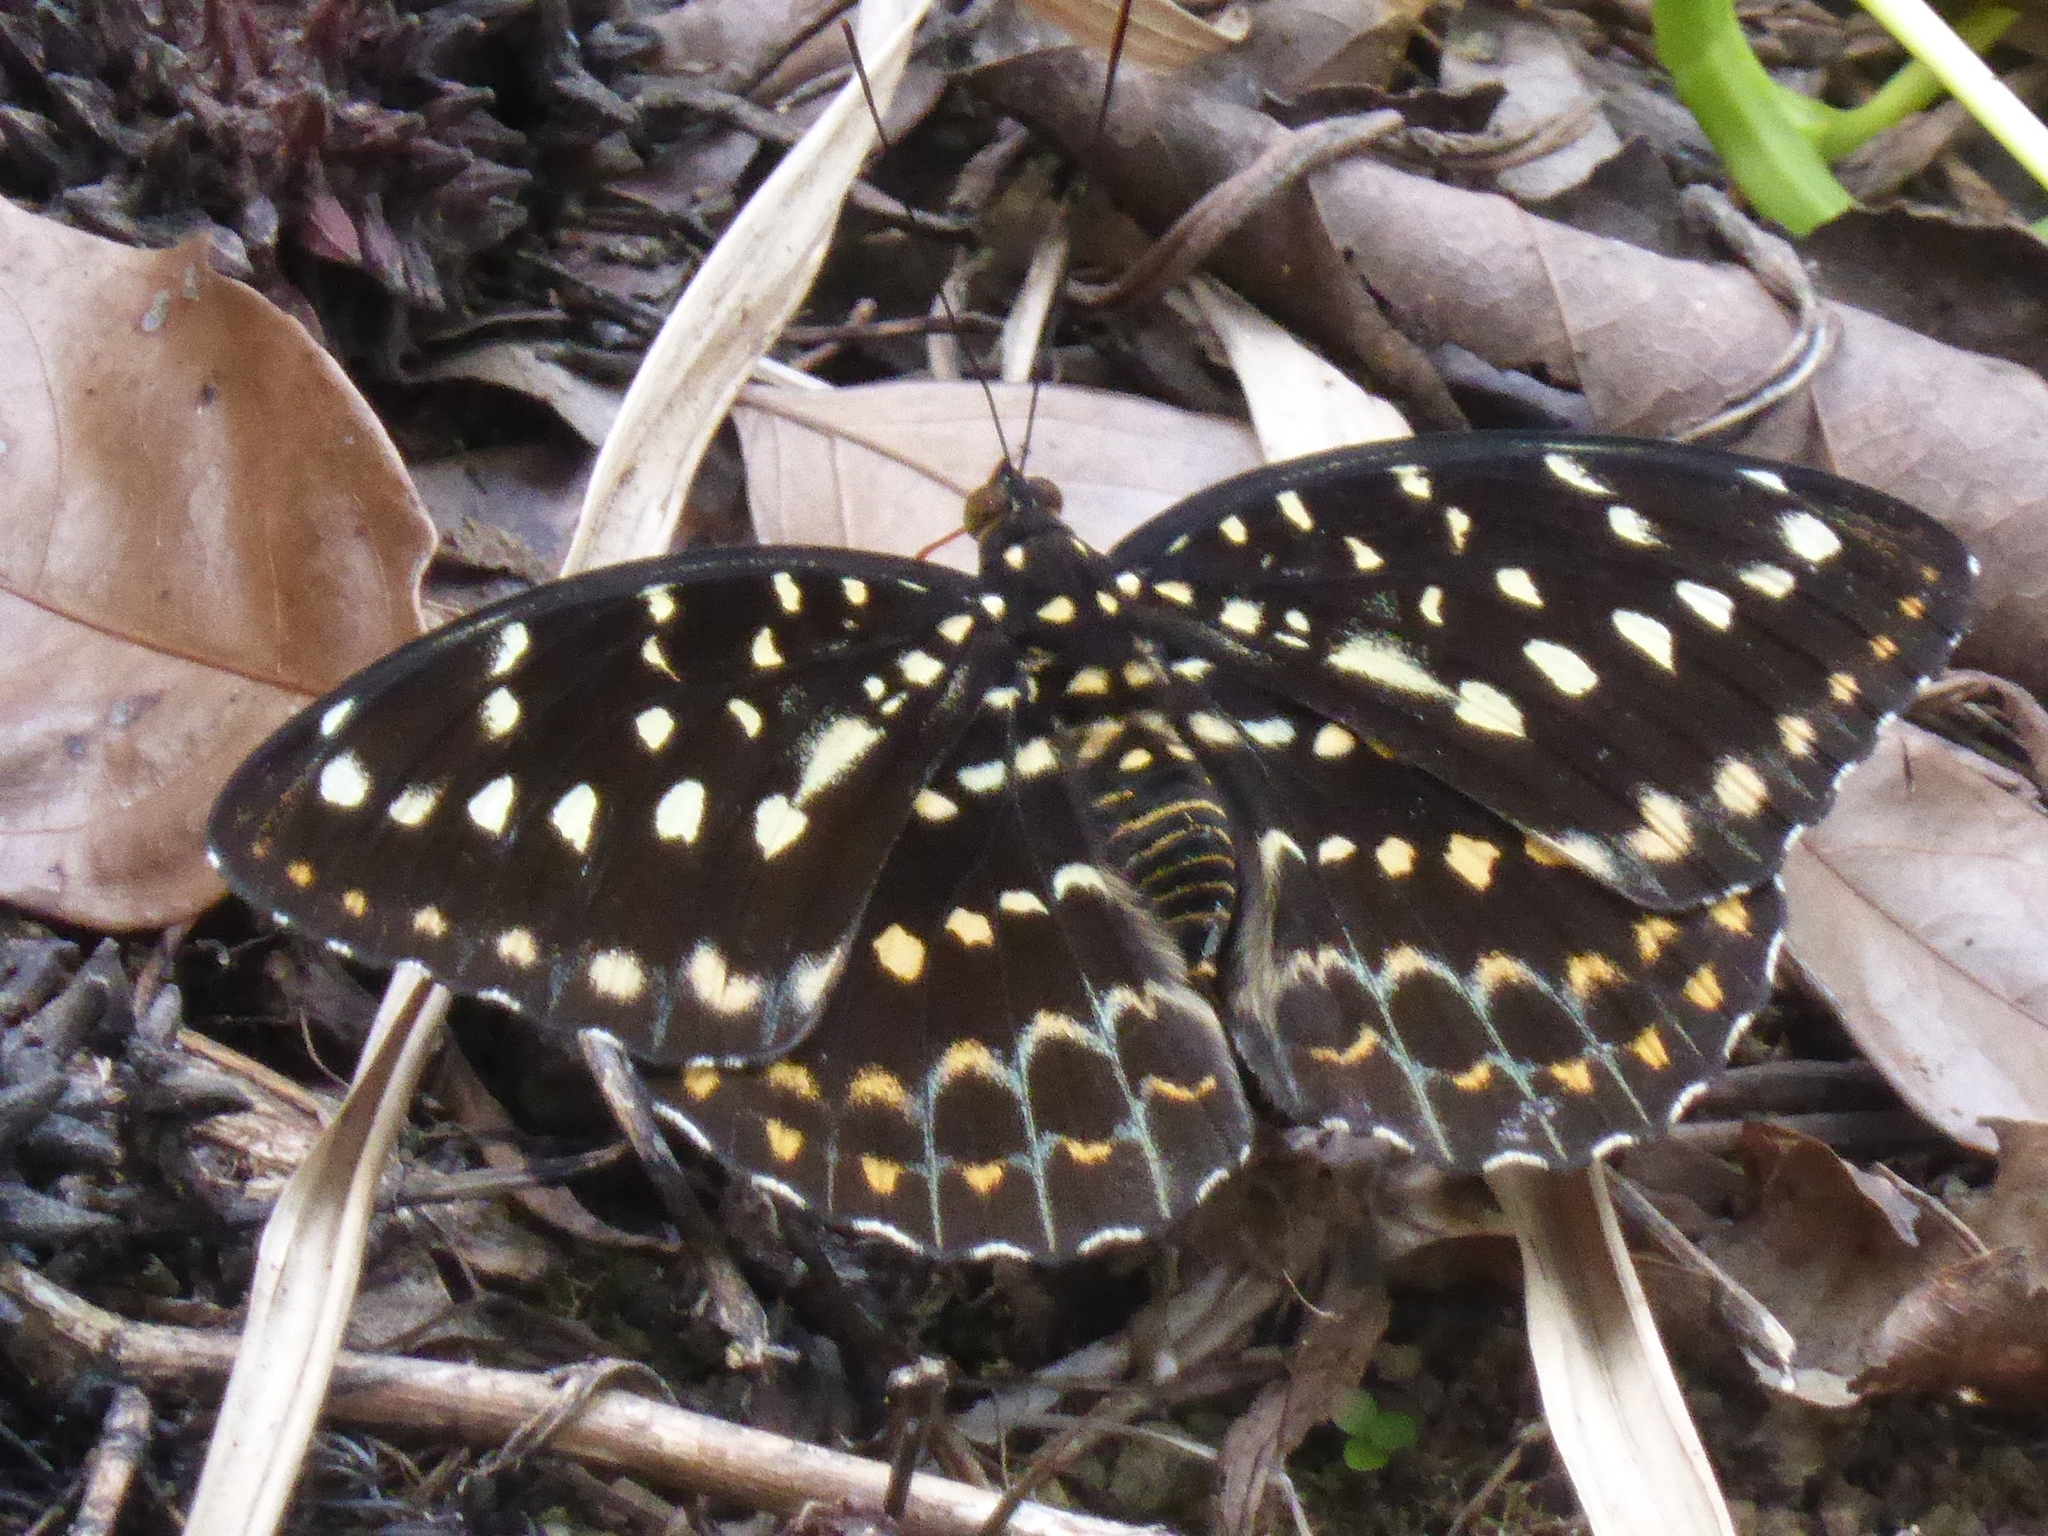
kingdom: Animalia
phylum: Arthropoda
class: Insecta
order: Lepidoptera
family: Nymphalidae
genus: Lexias
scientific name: Lexias dirtea
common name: Black-tipped archduke
